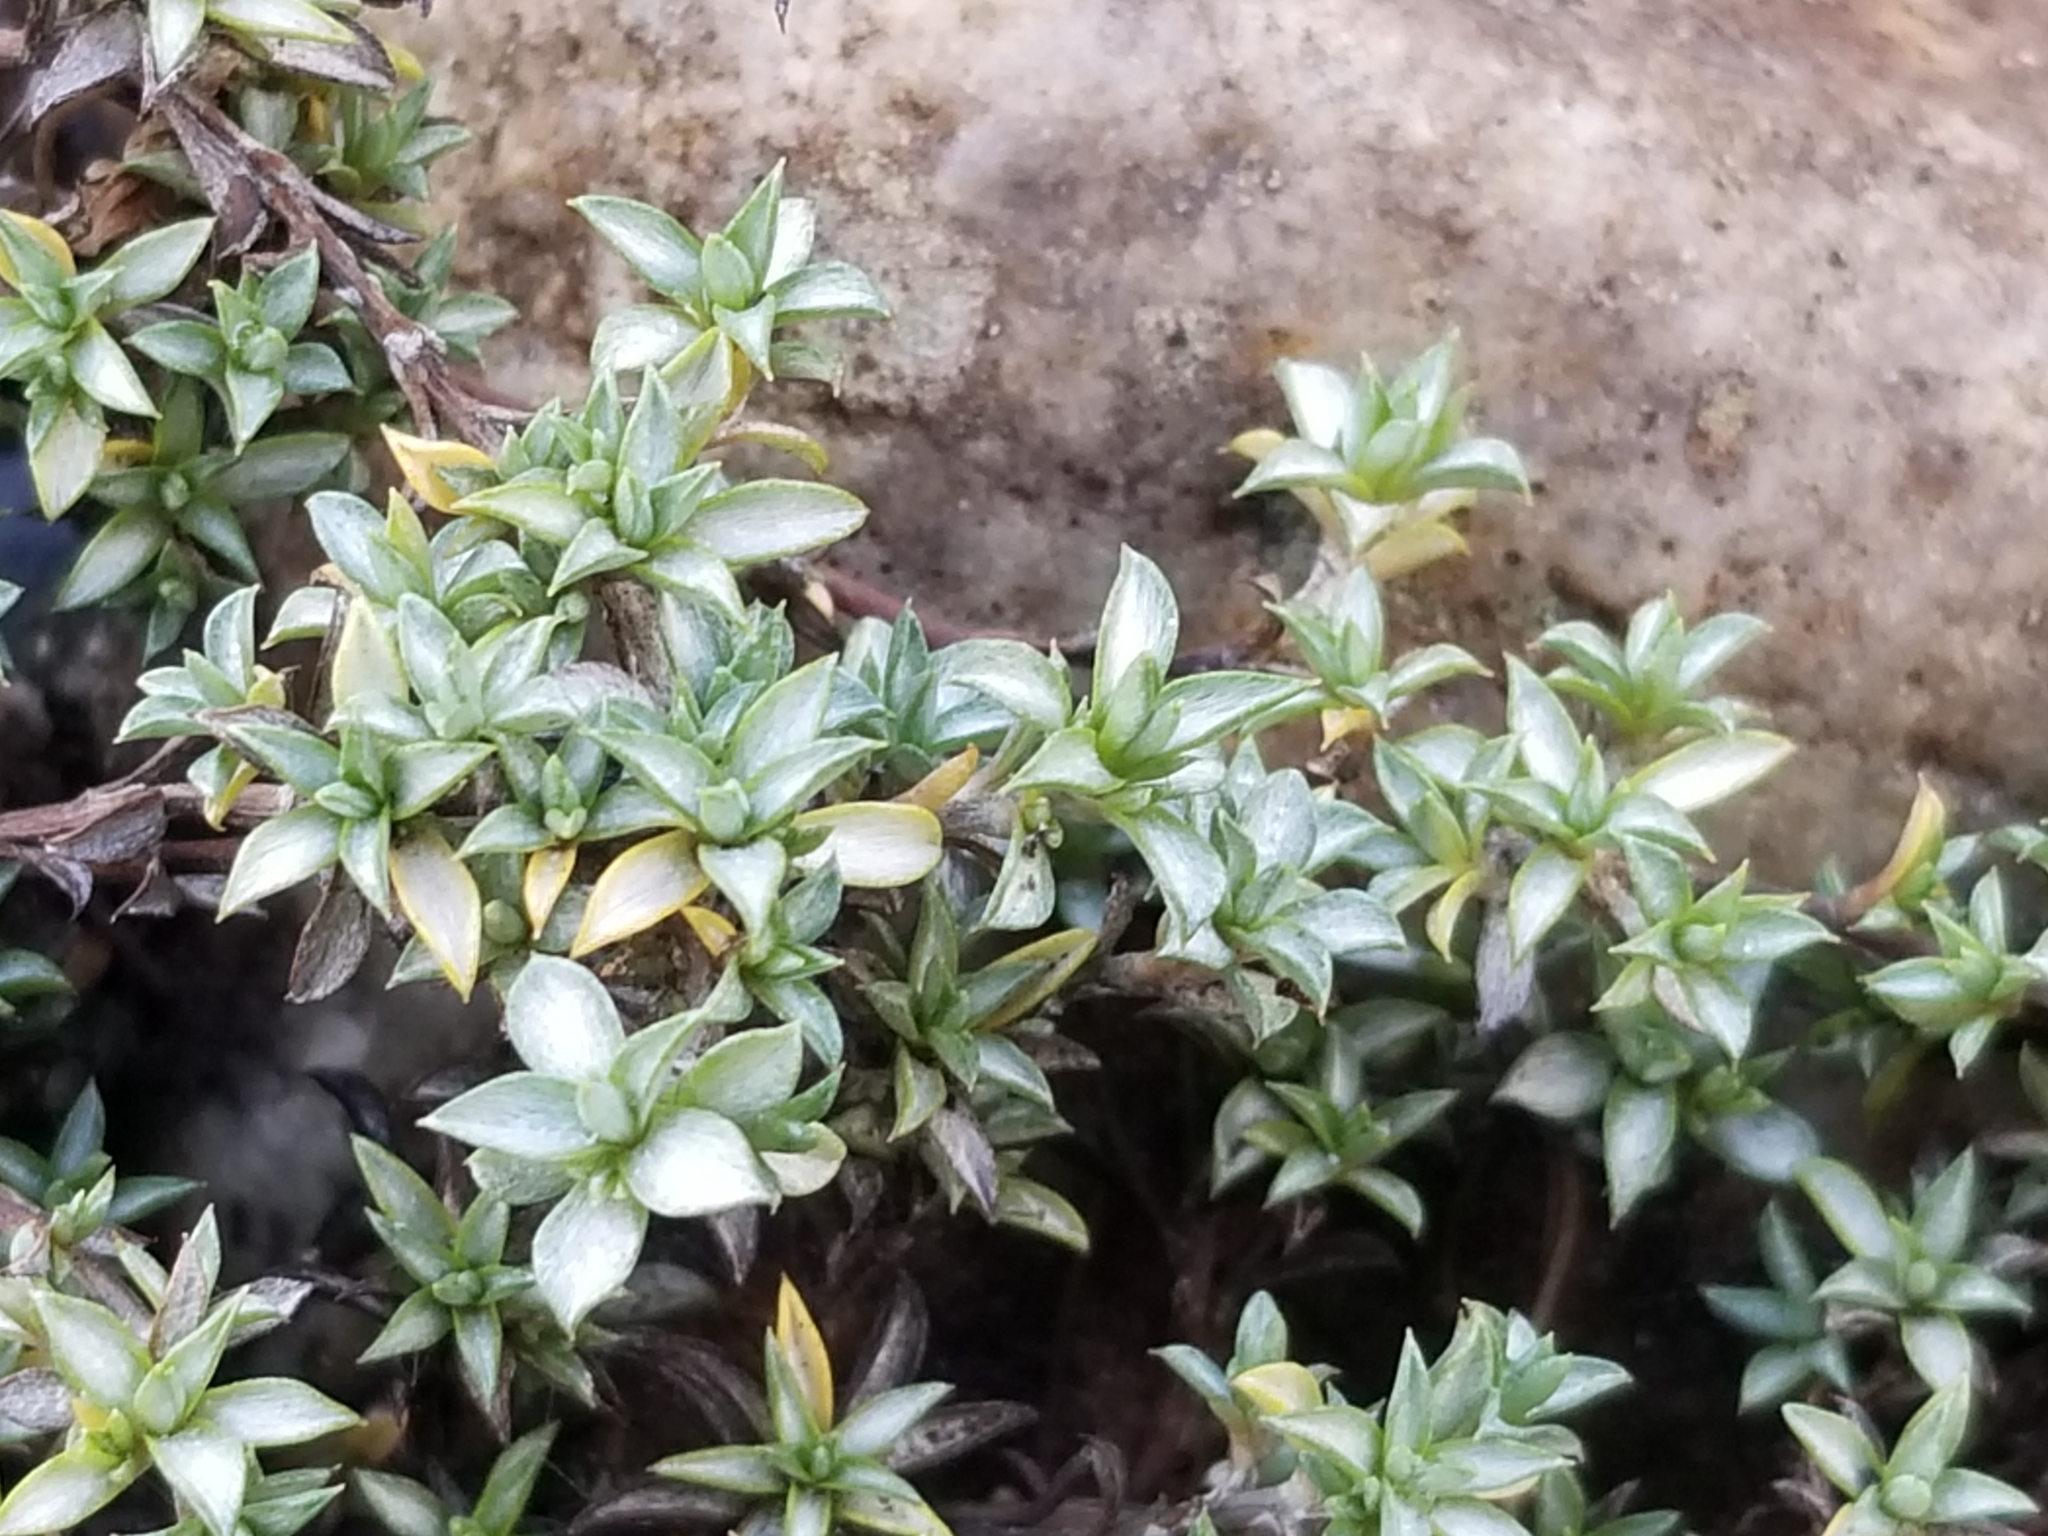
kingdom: Plantae
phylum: Tracheophyta
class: Magnoliopsida
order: Asterales
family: Asteraceae
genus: Raoulia
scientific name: Raoulia tenuicaulis
